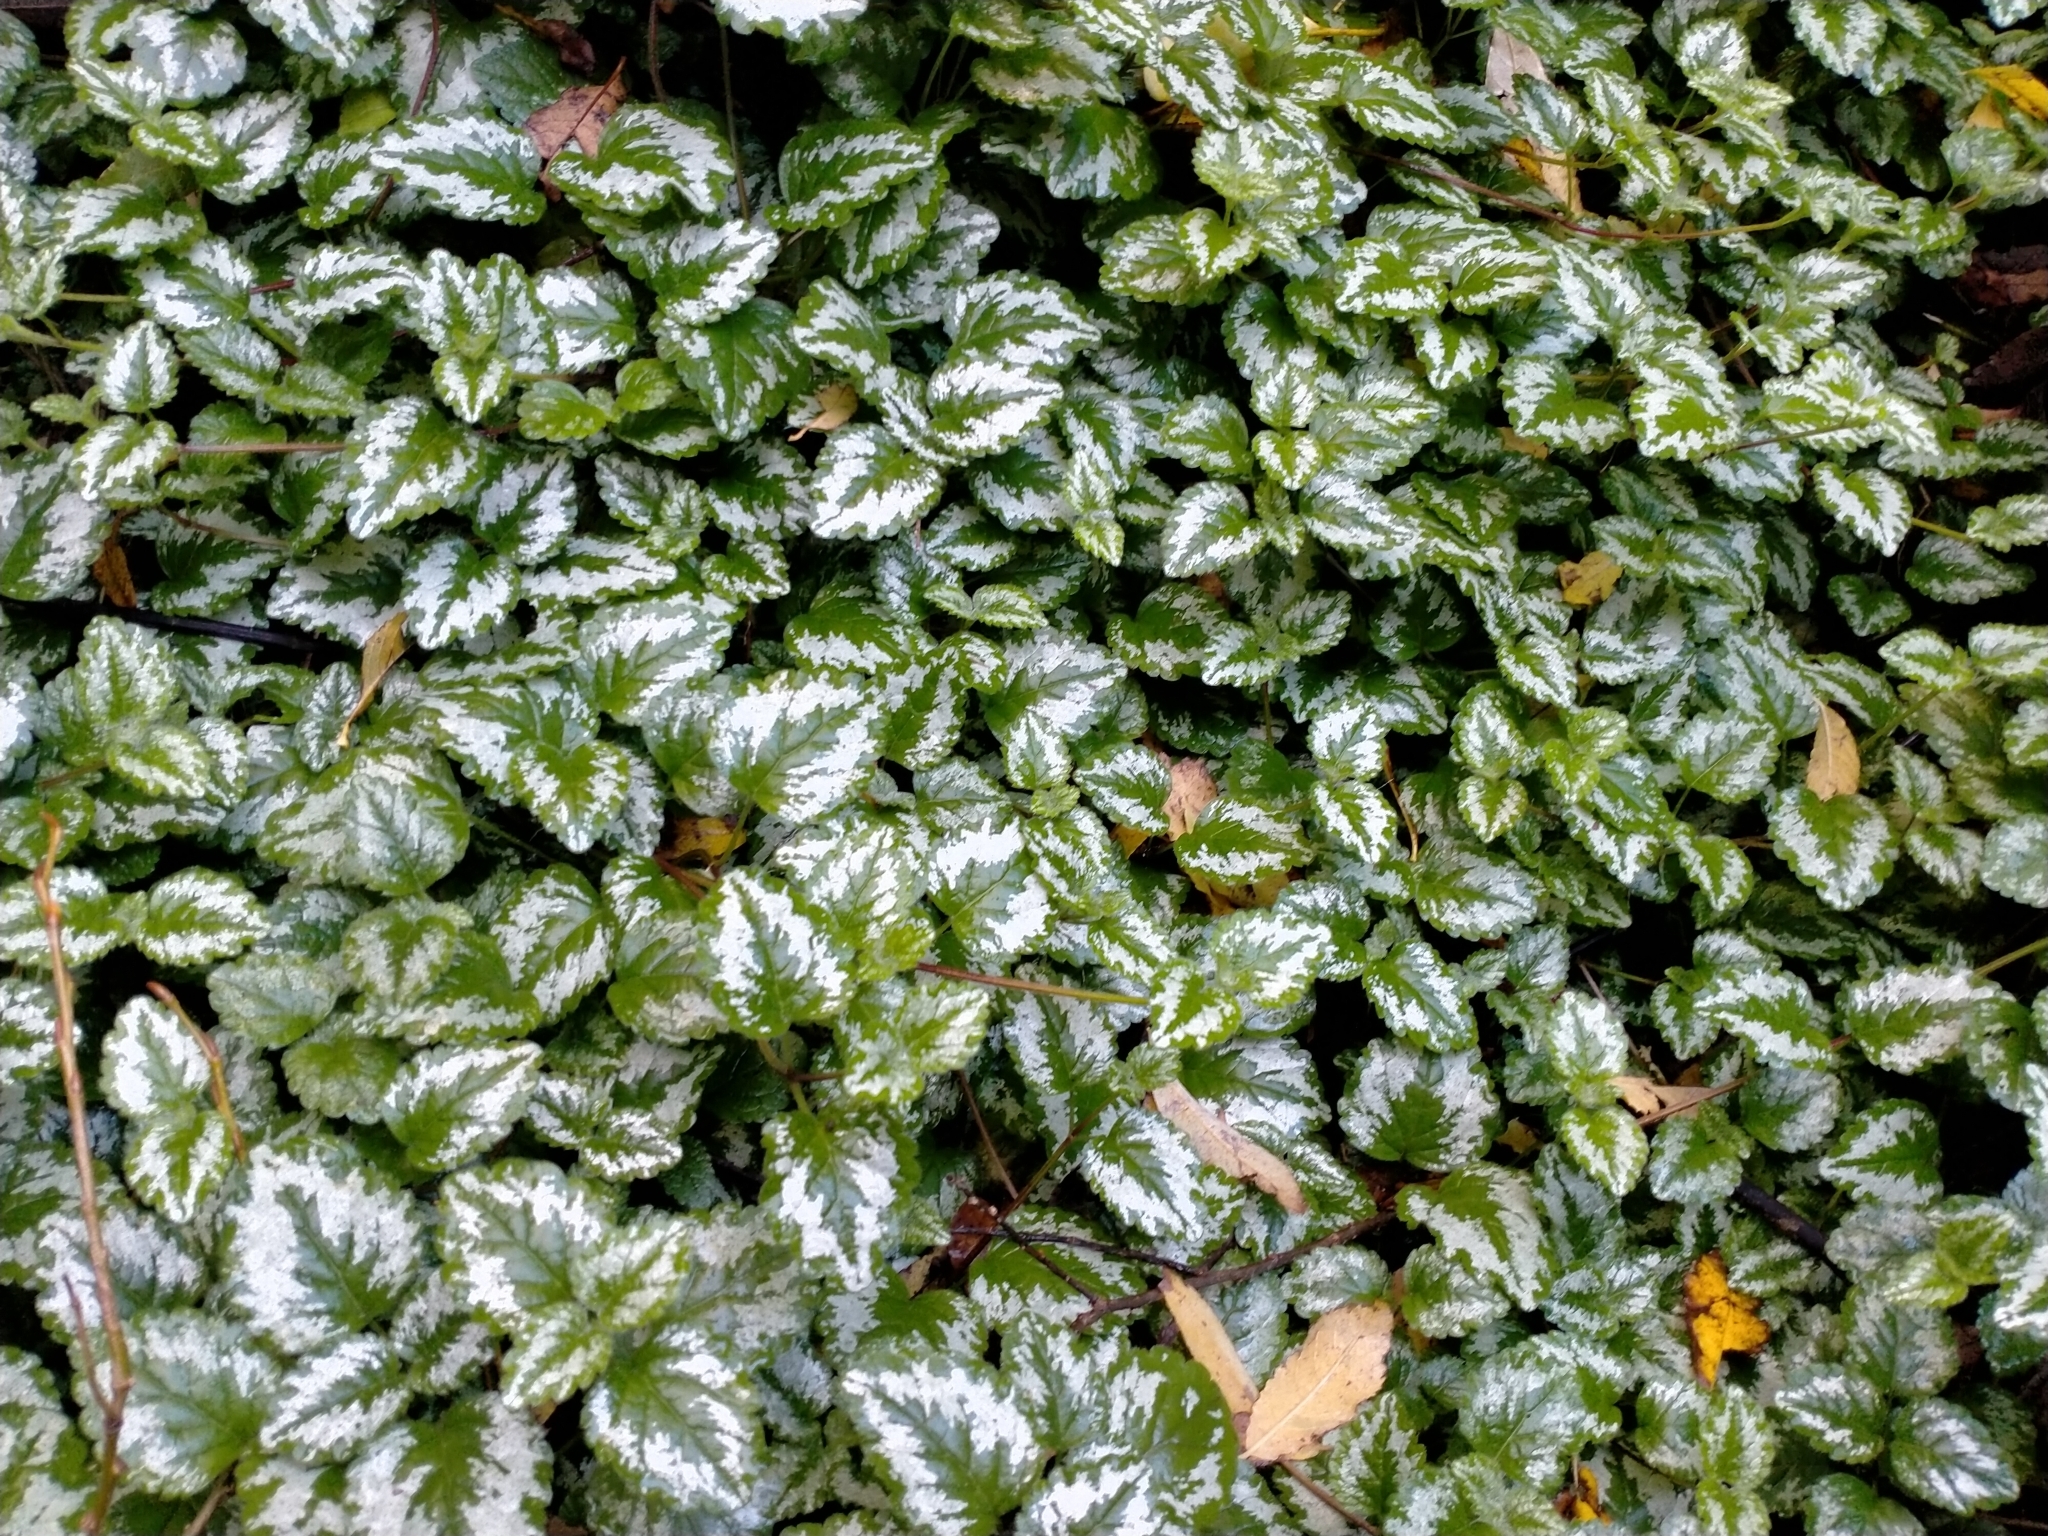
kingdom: Plantae
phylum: Tracheophyta
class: Magnoliopsida
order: Lamiales
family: Lamiaceae
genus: Lamium
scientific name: Lamium galeobdolon
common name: Yellow archangel
